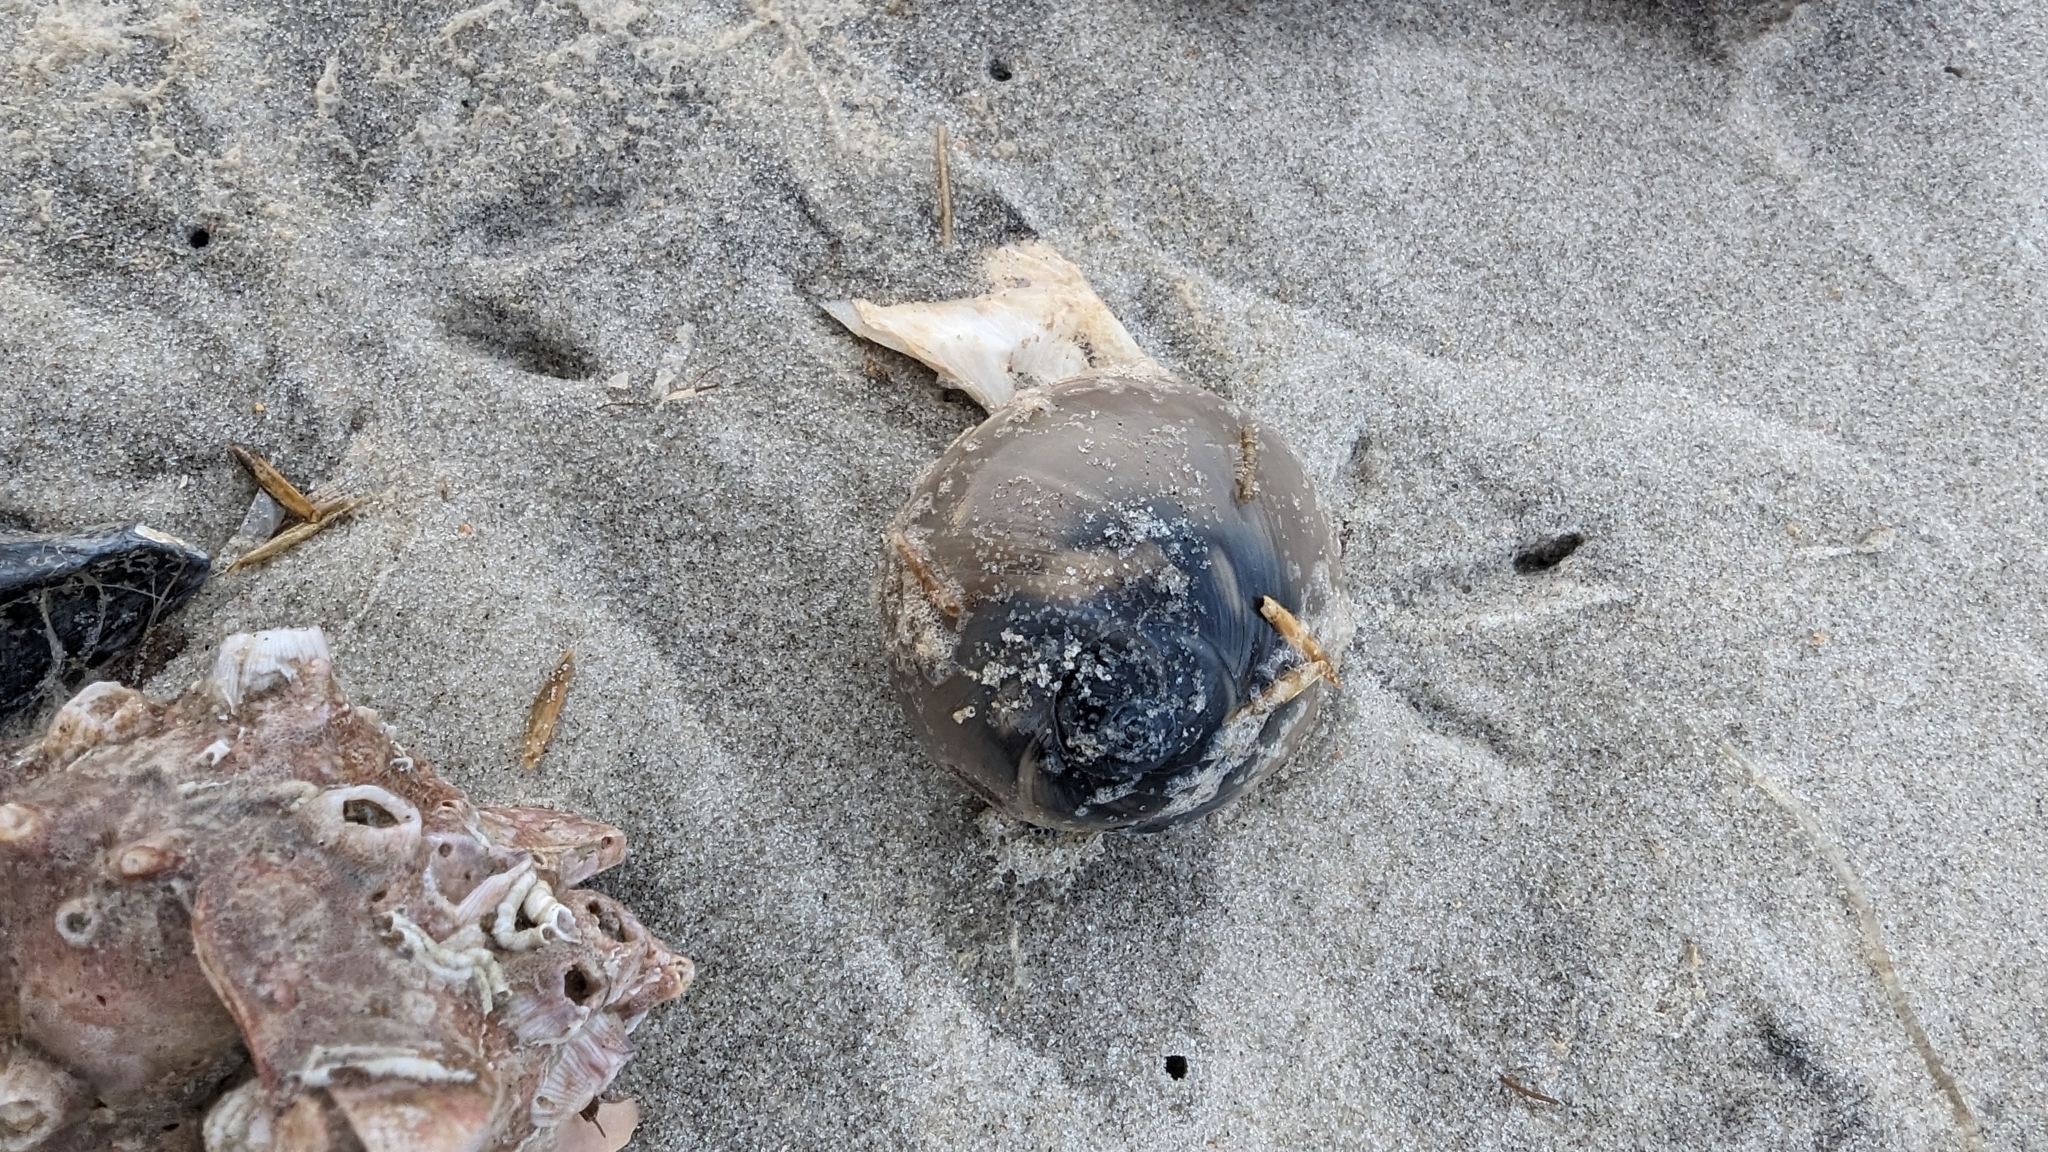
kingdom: Animalia
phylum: Mollusca
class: Gastropoda
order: Littorinimorpha
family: Naticidae
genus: Neverita
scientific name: Neverita duplicata
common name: Lobed moonsnail
